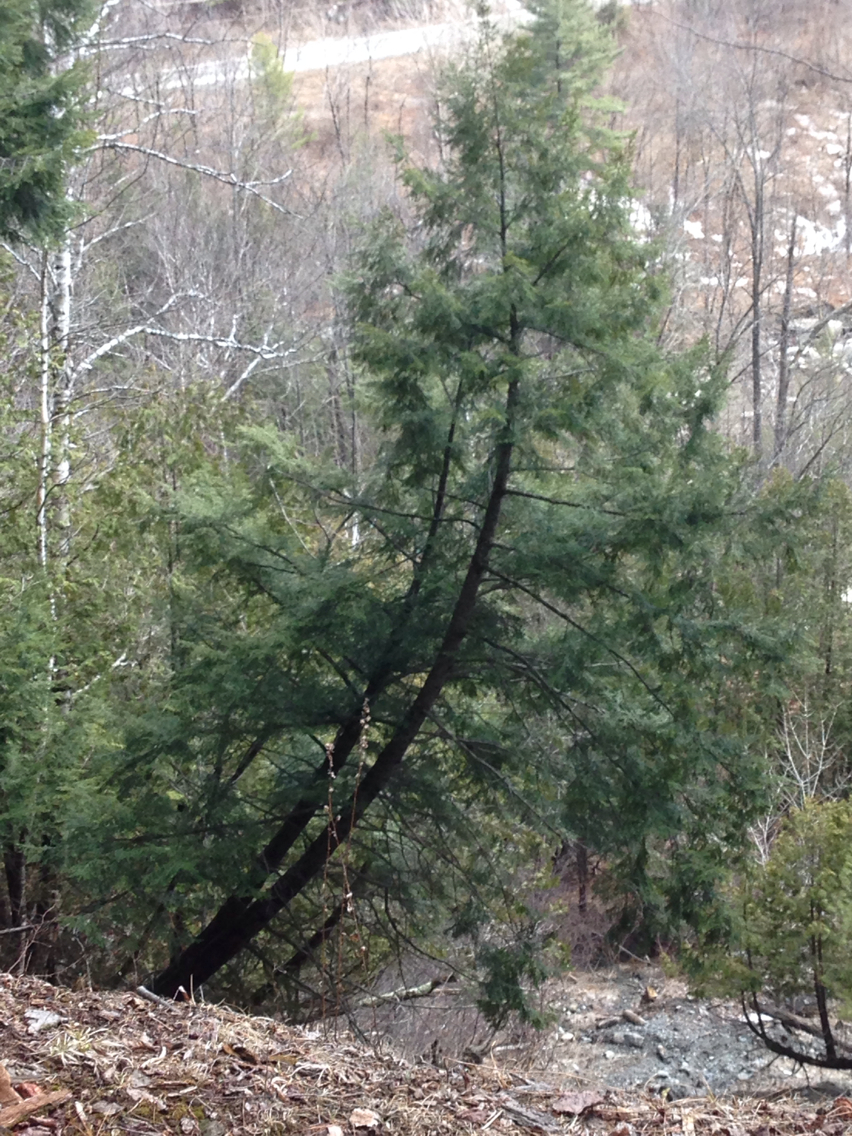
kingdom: Plantae
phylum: Tracheophyta
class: Pinopsida
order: Pinales
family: Pinaceae
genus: Tsuga
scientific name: Tsuga canadensis
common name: Eastern hemlock
